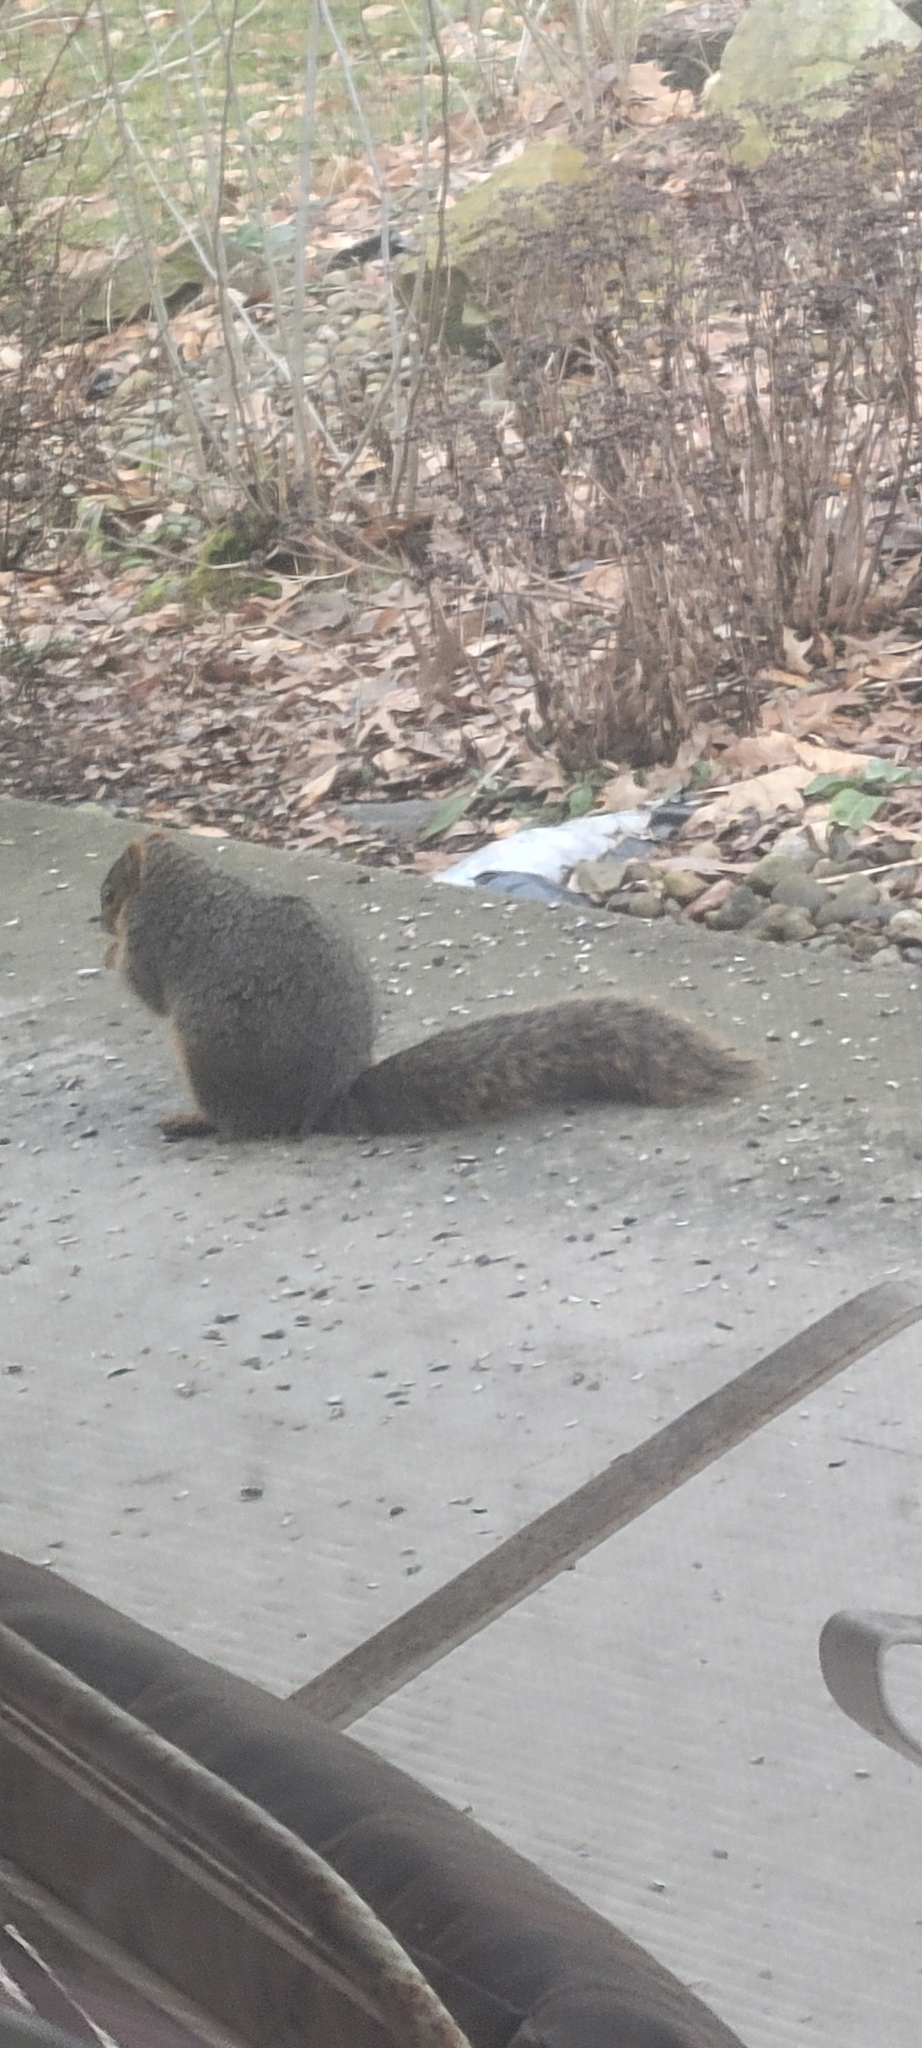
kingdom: Animalia
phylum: Chordata
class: Mammalia
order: Rodentia
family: Sciuridae
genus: Sciurus
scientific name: Sciurus niger
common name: Fox squirrel
